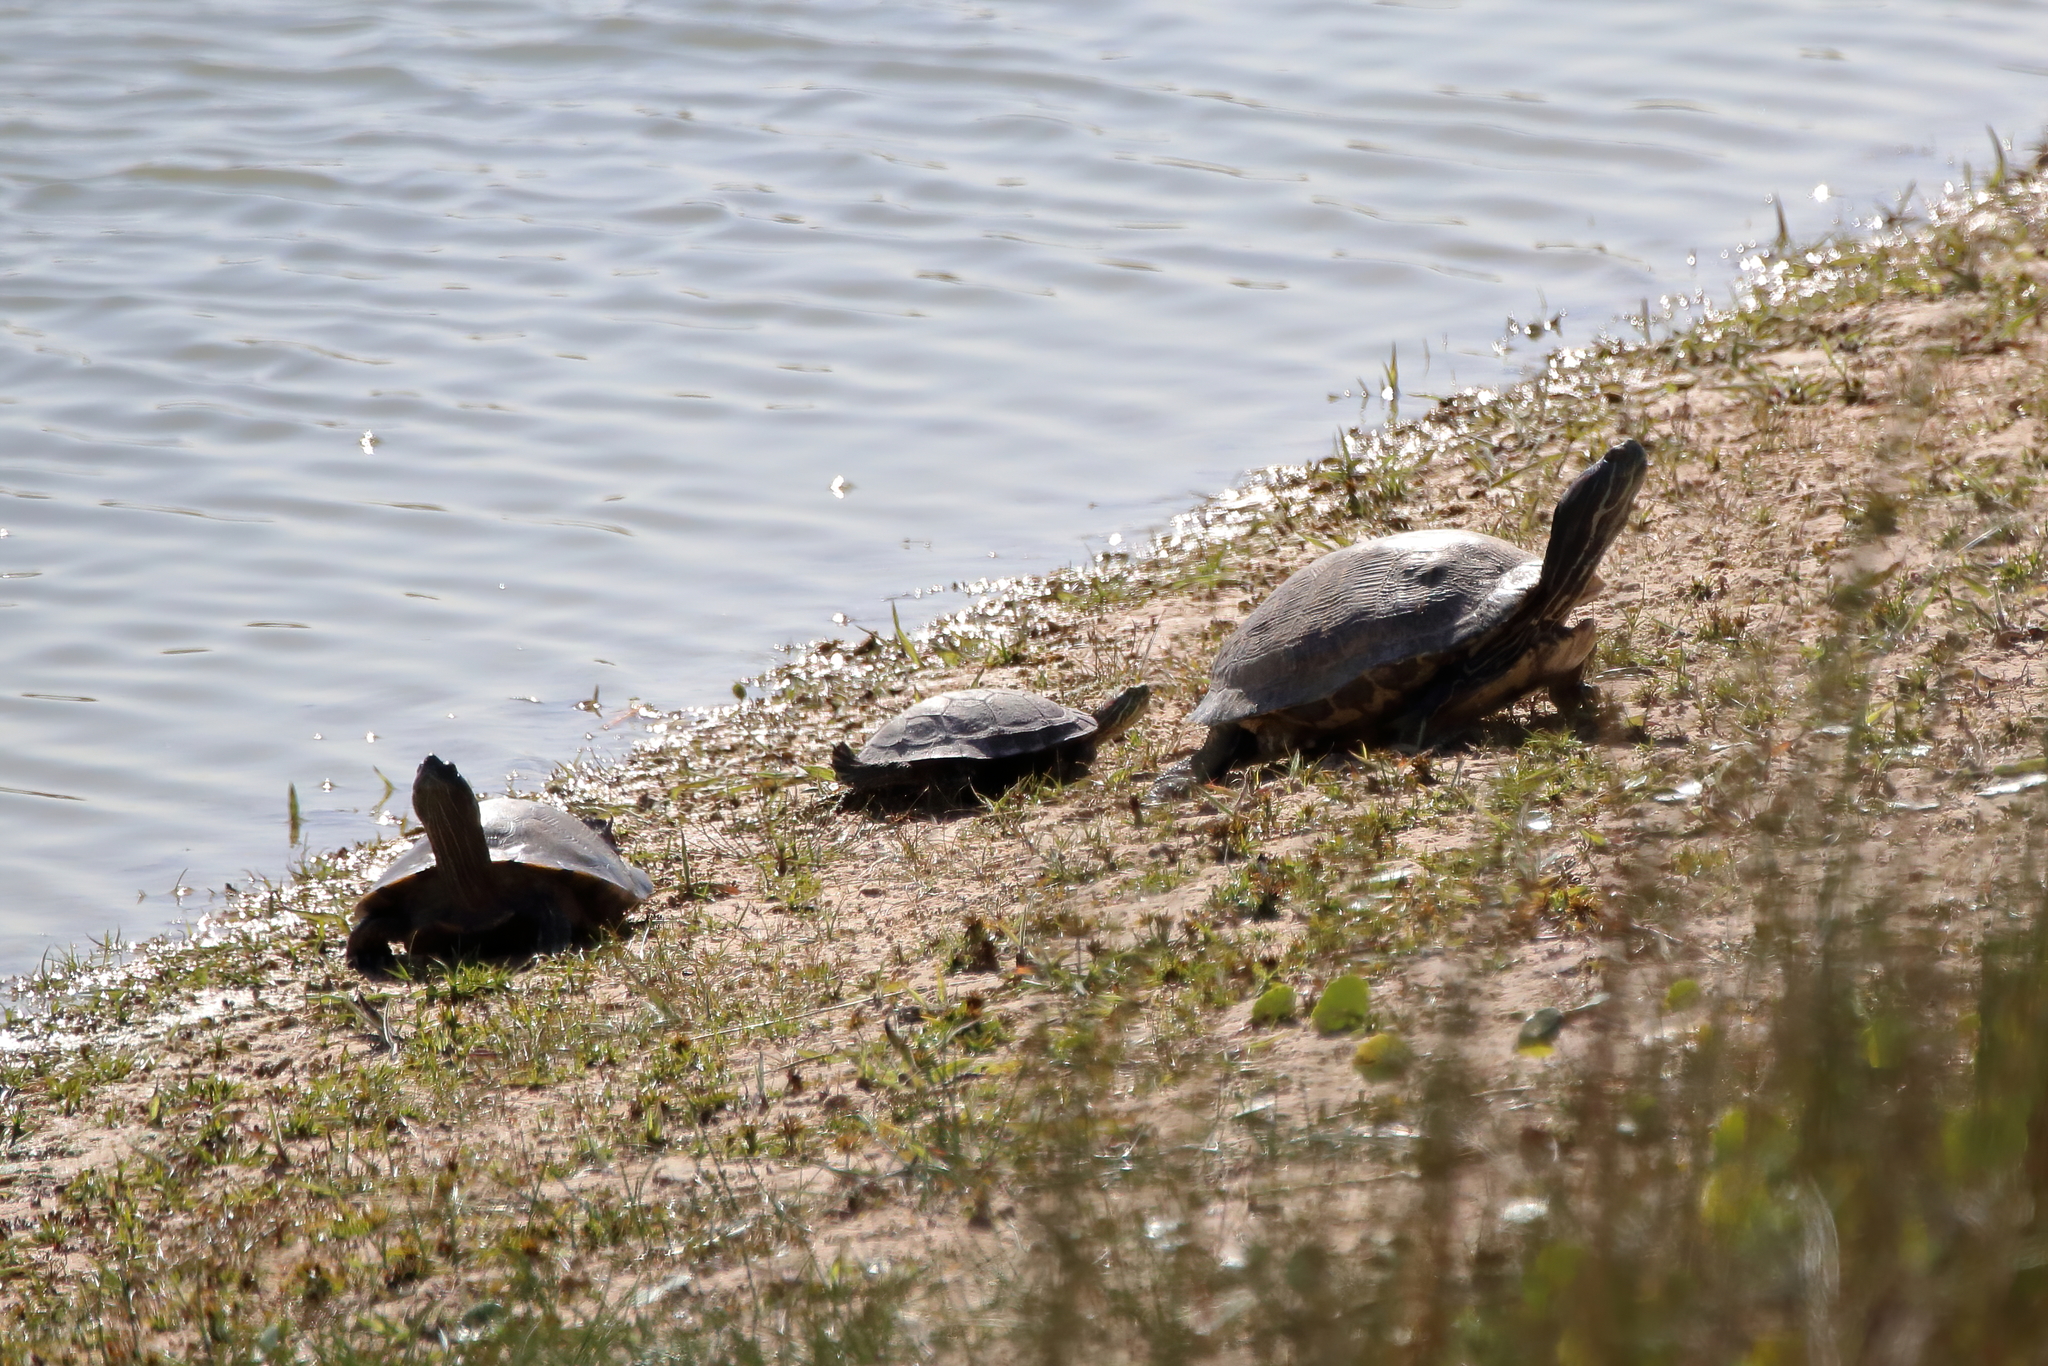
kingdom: Animalia
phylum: Chordata
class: Testudines
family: Emydidae
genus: Trachemys
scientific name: Trachemys scripta
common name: Slider
